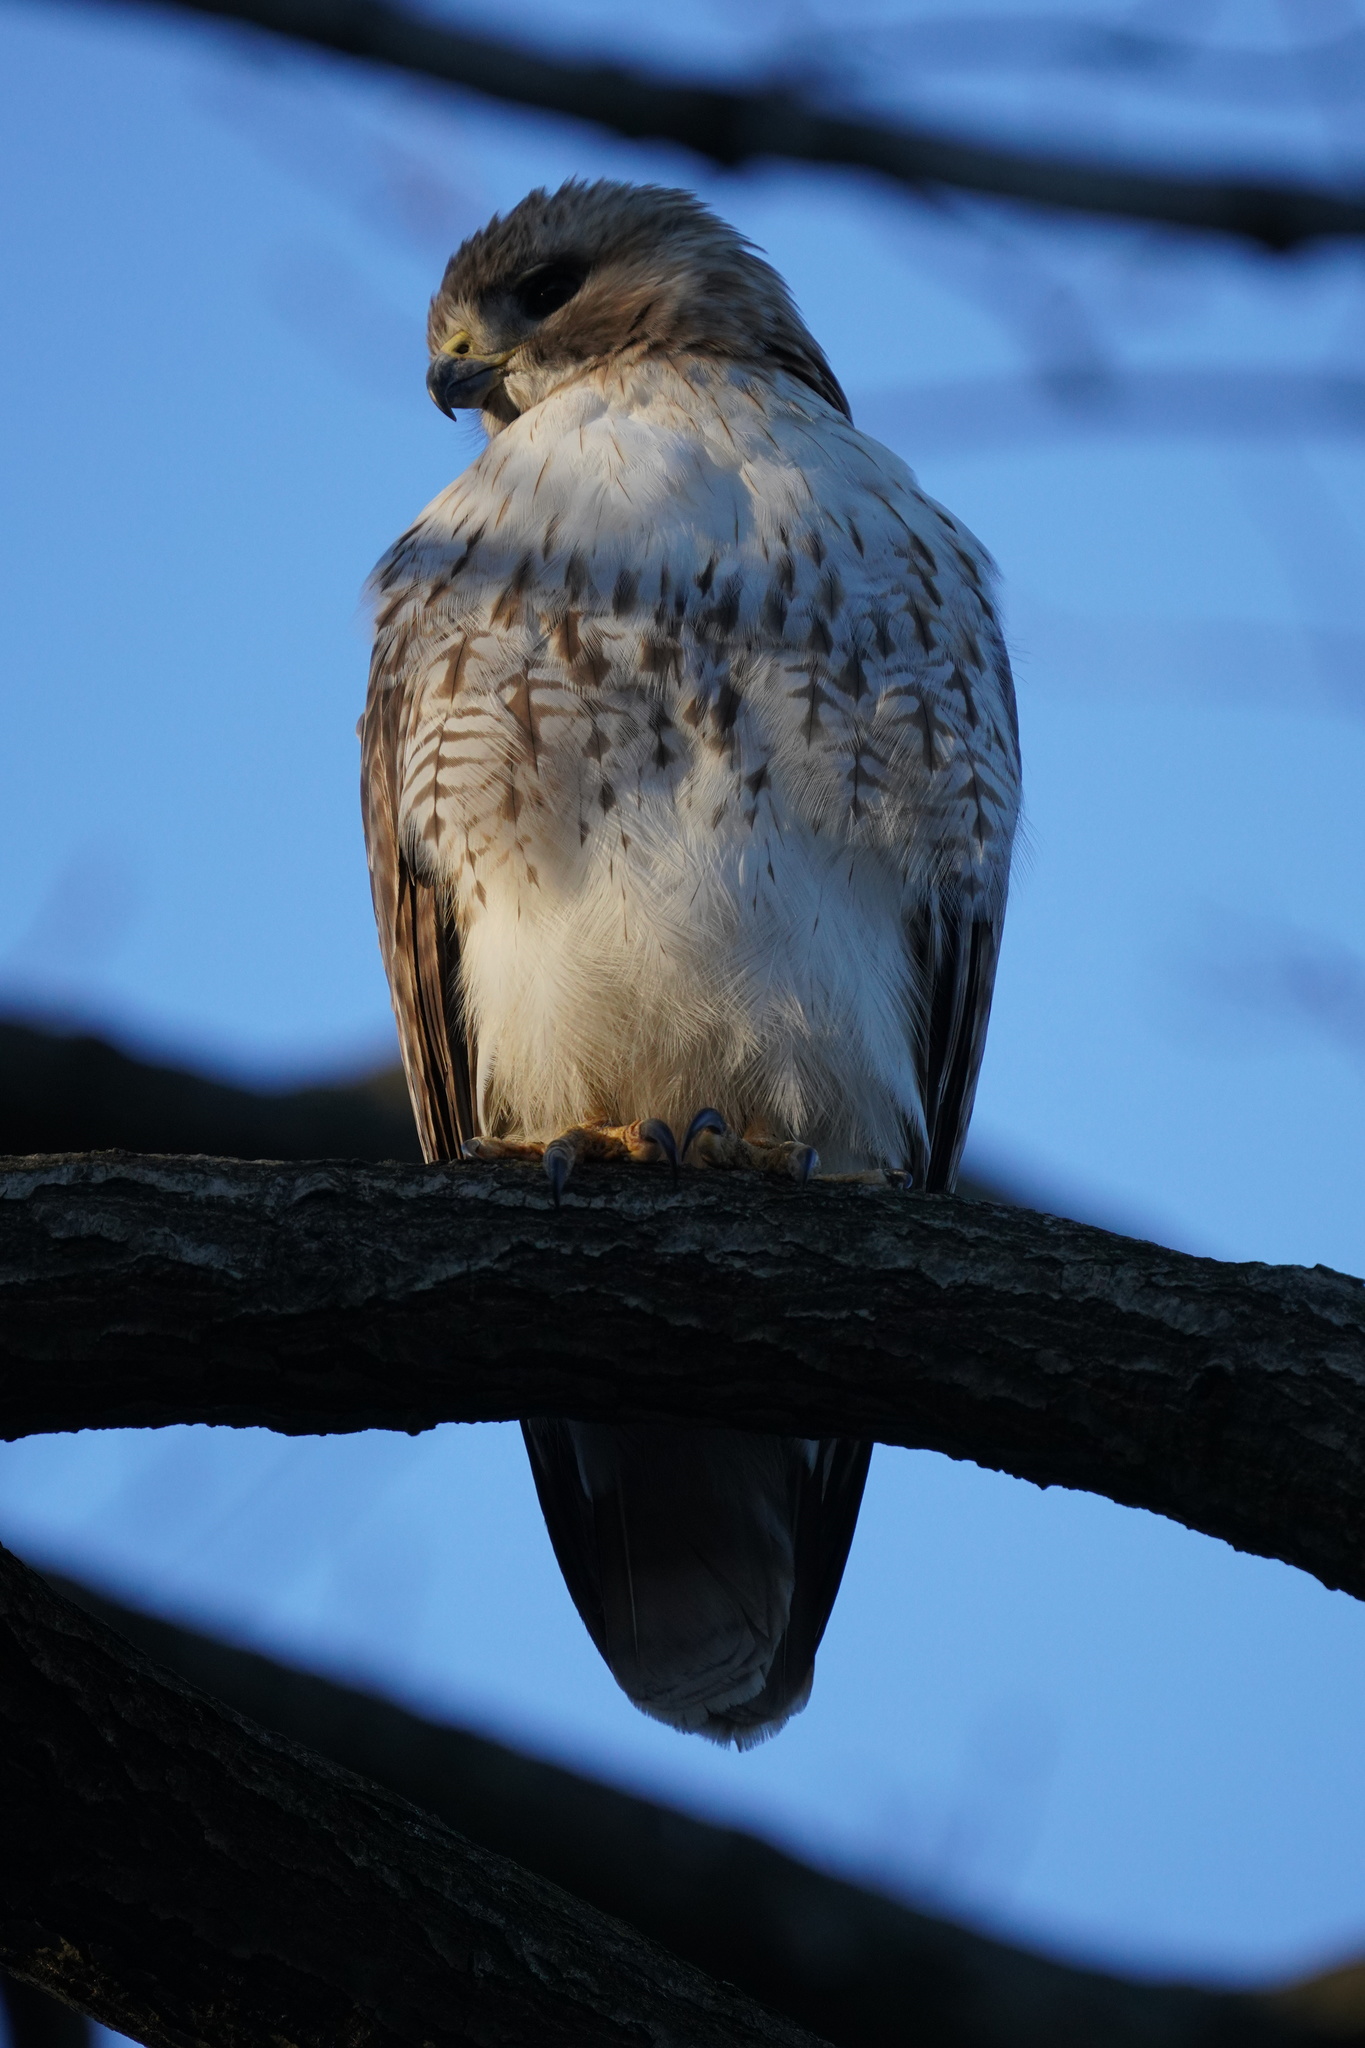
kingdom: Animalia
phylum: Chordata
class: Aves
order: Accipitriformes
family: Accipitridae
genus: Buteo
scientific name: Buteo jamaicensis
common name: Red-tailed hawk
